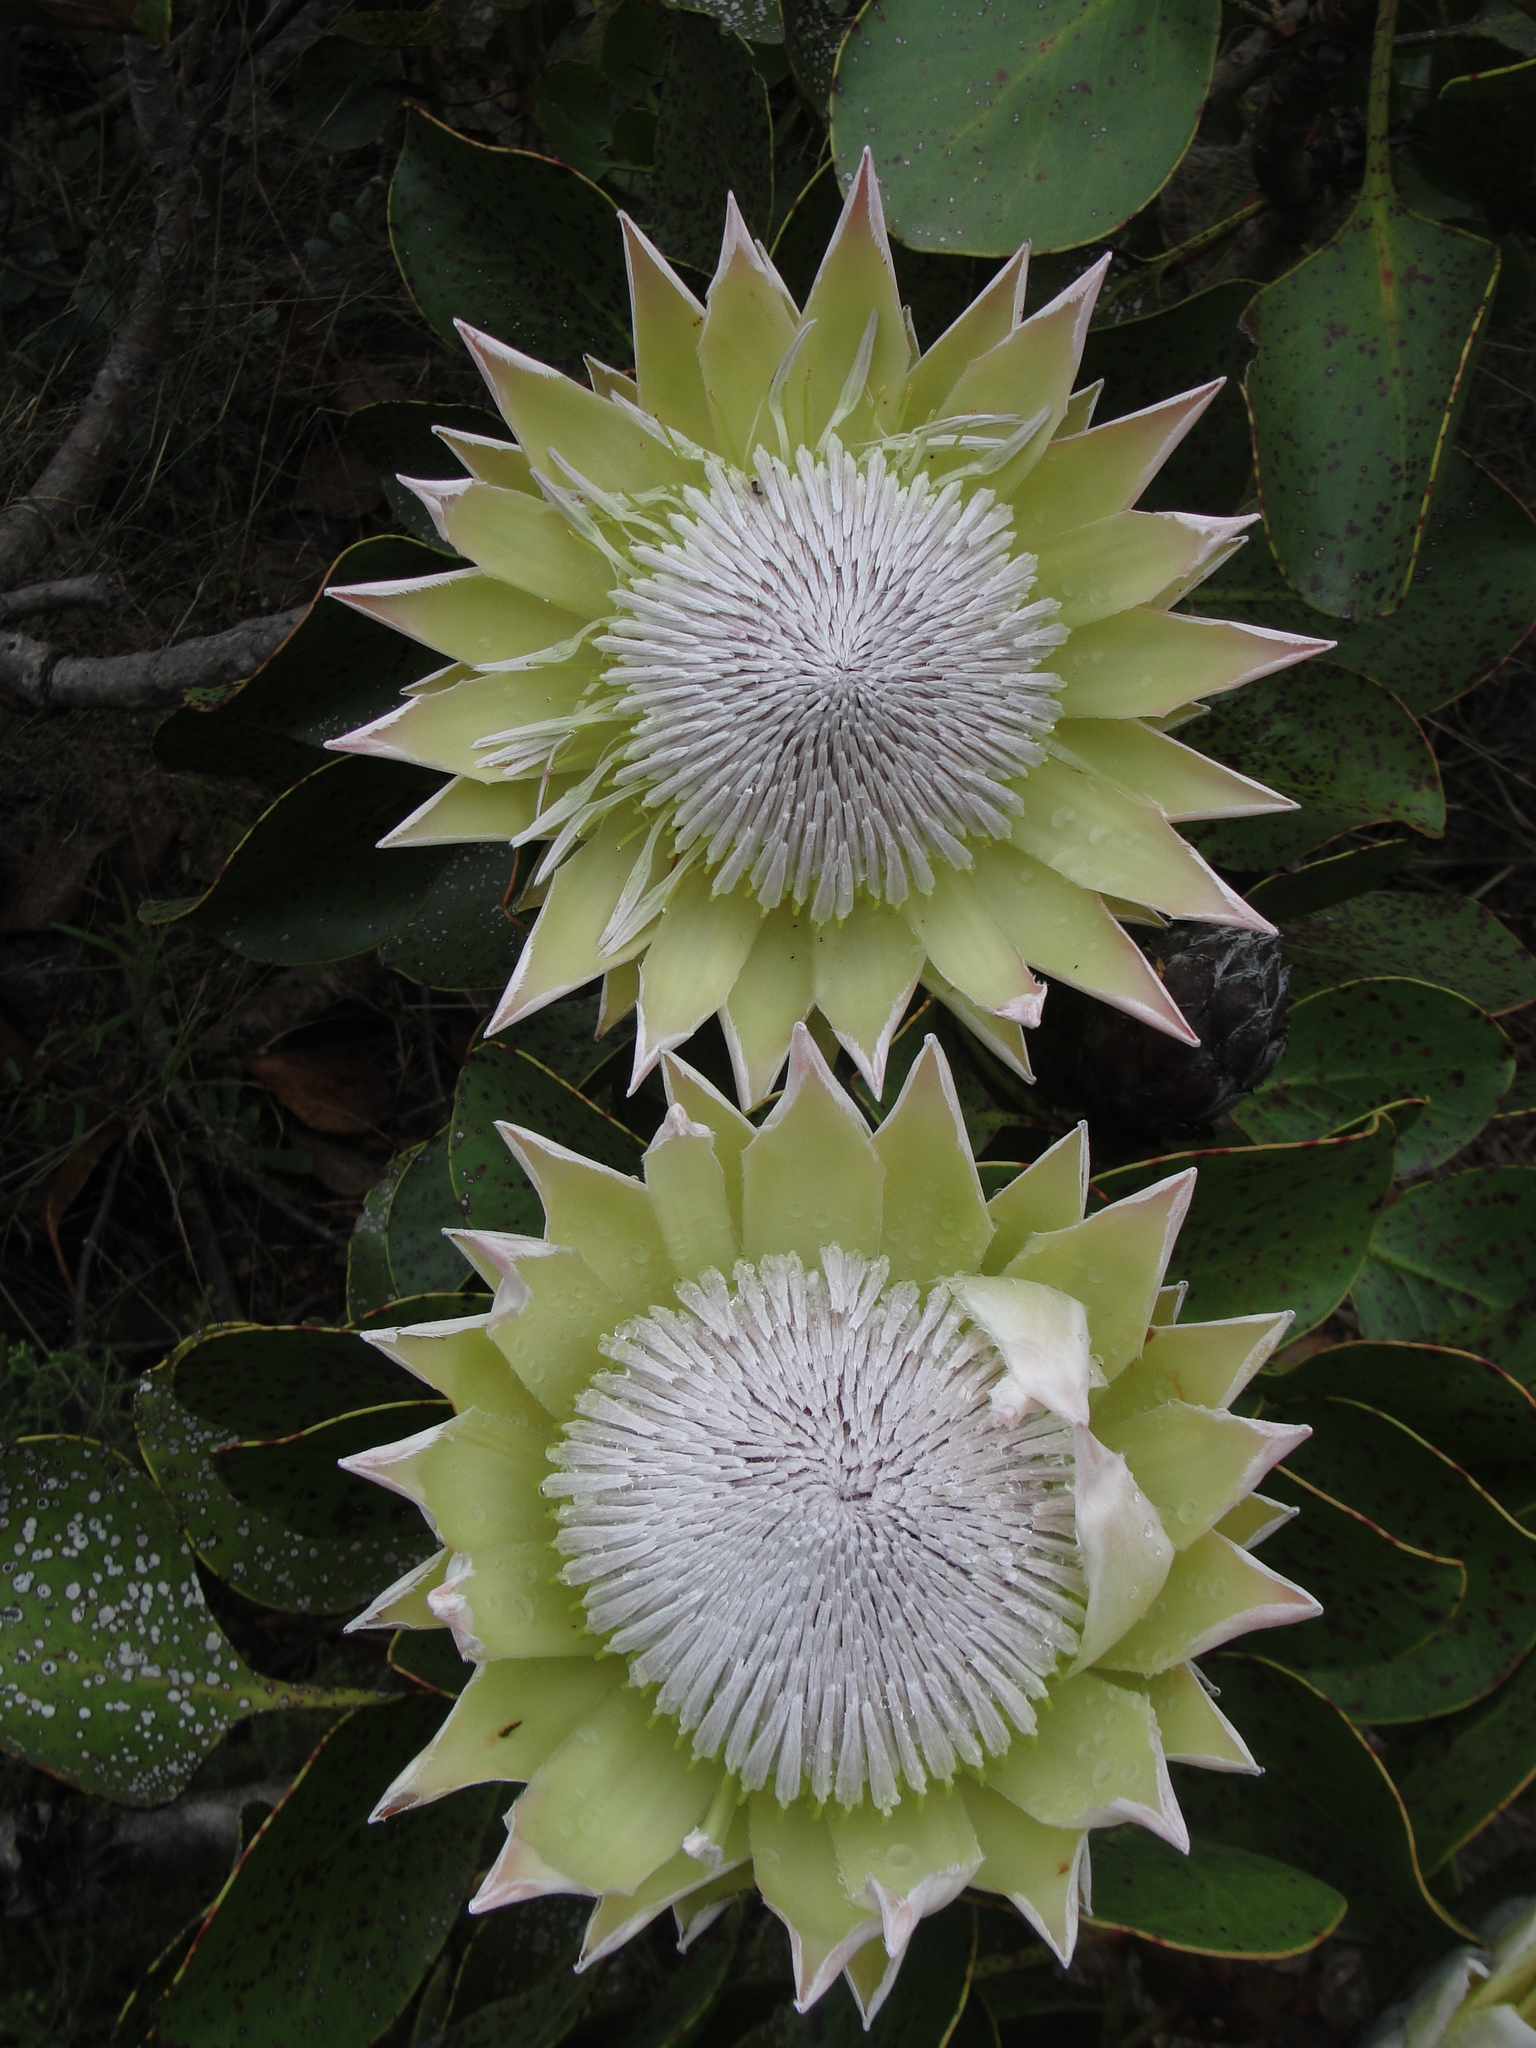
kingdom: Plantae
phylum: Tracheophyta
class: Magnoliopsida
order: Proteales
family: Proteaceae
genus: Protea
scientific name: Protea cynaroides
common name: King protea
